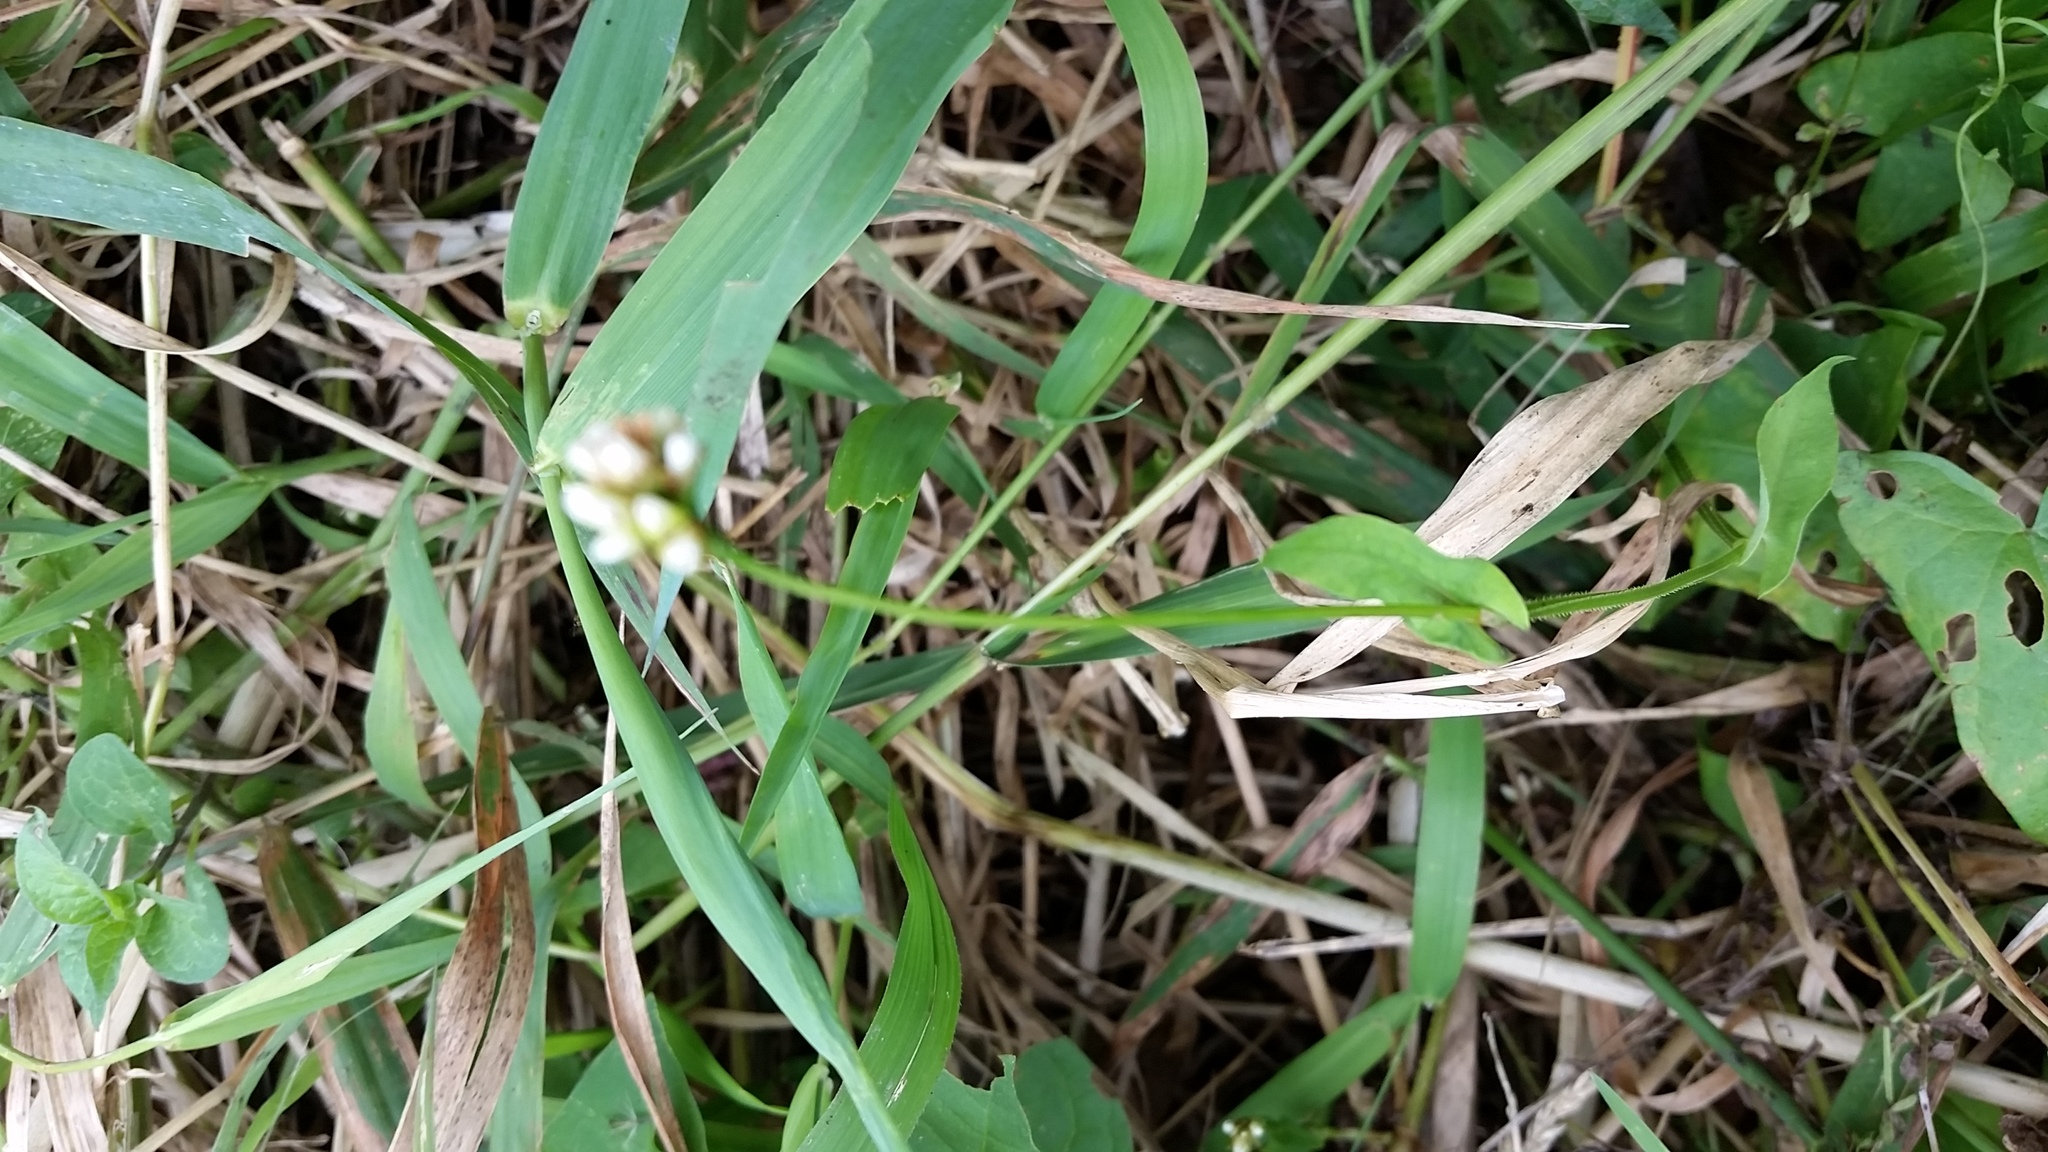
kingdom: Plantae
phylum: Tracheophyta
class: Magnoliopsida
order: Caryophyllales
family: Polygonaceae
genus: Persicaria
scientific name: Persicaria sagittata
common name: American tearthumb
